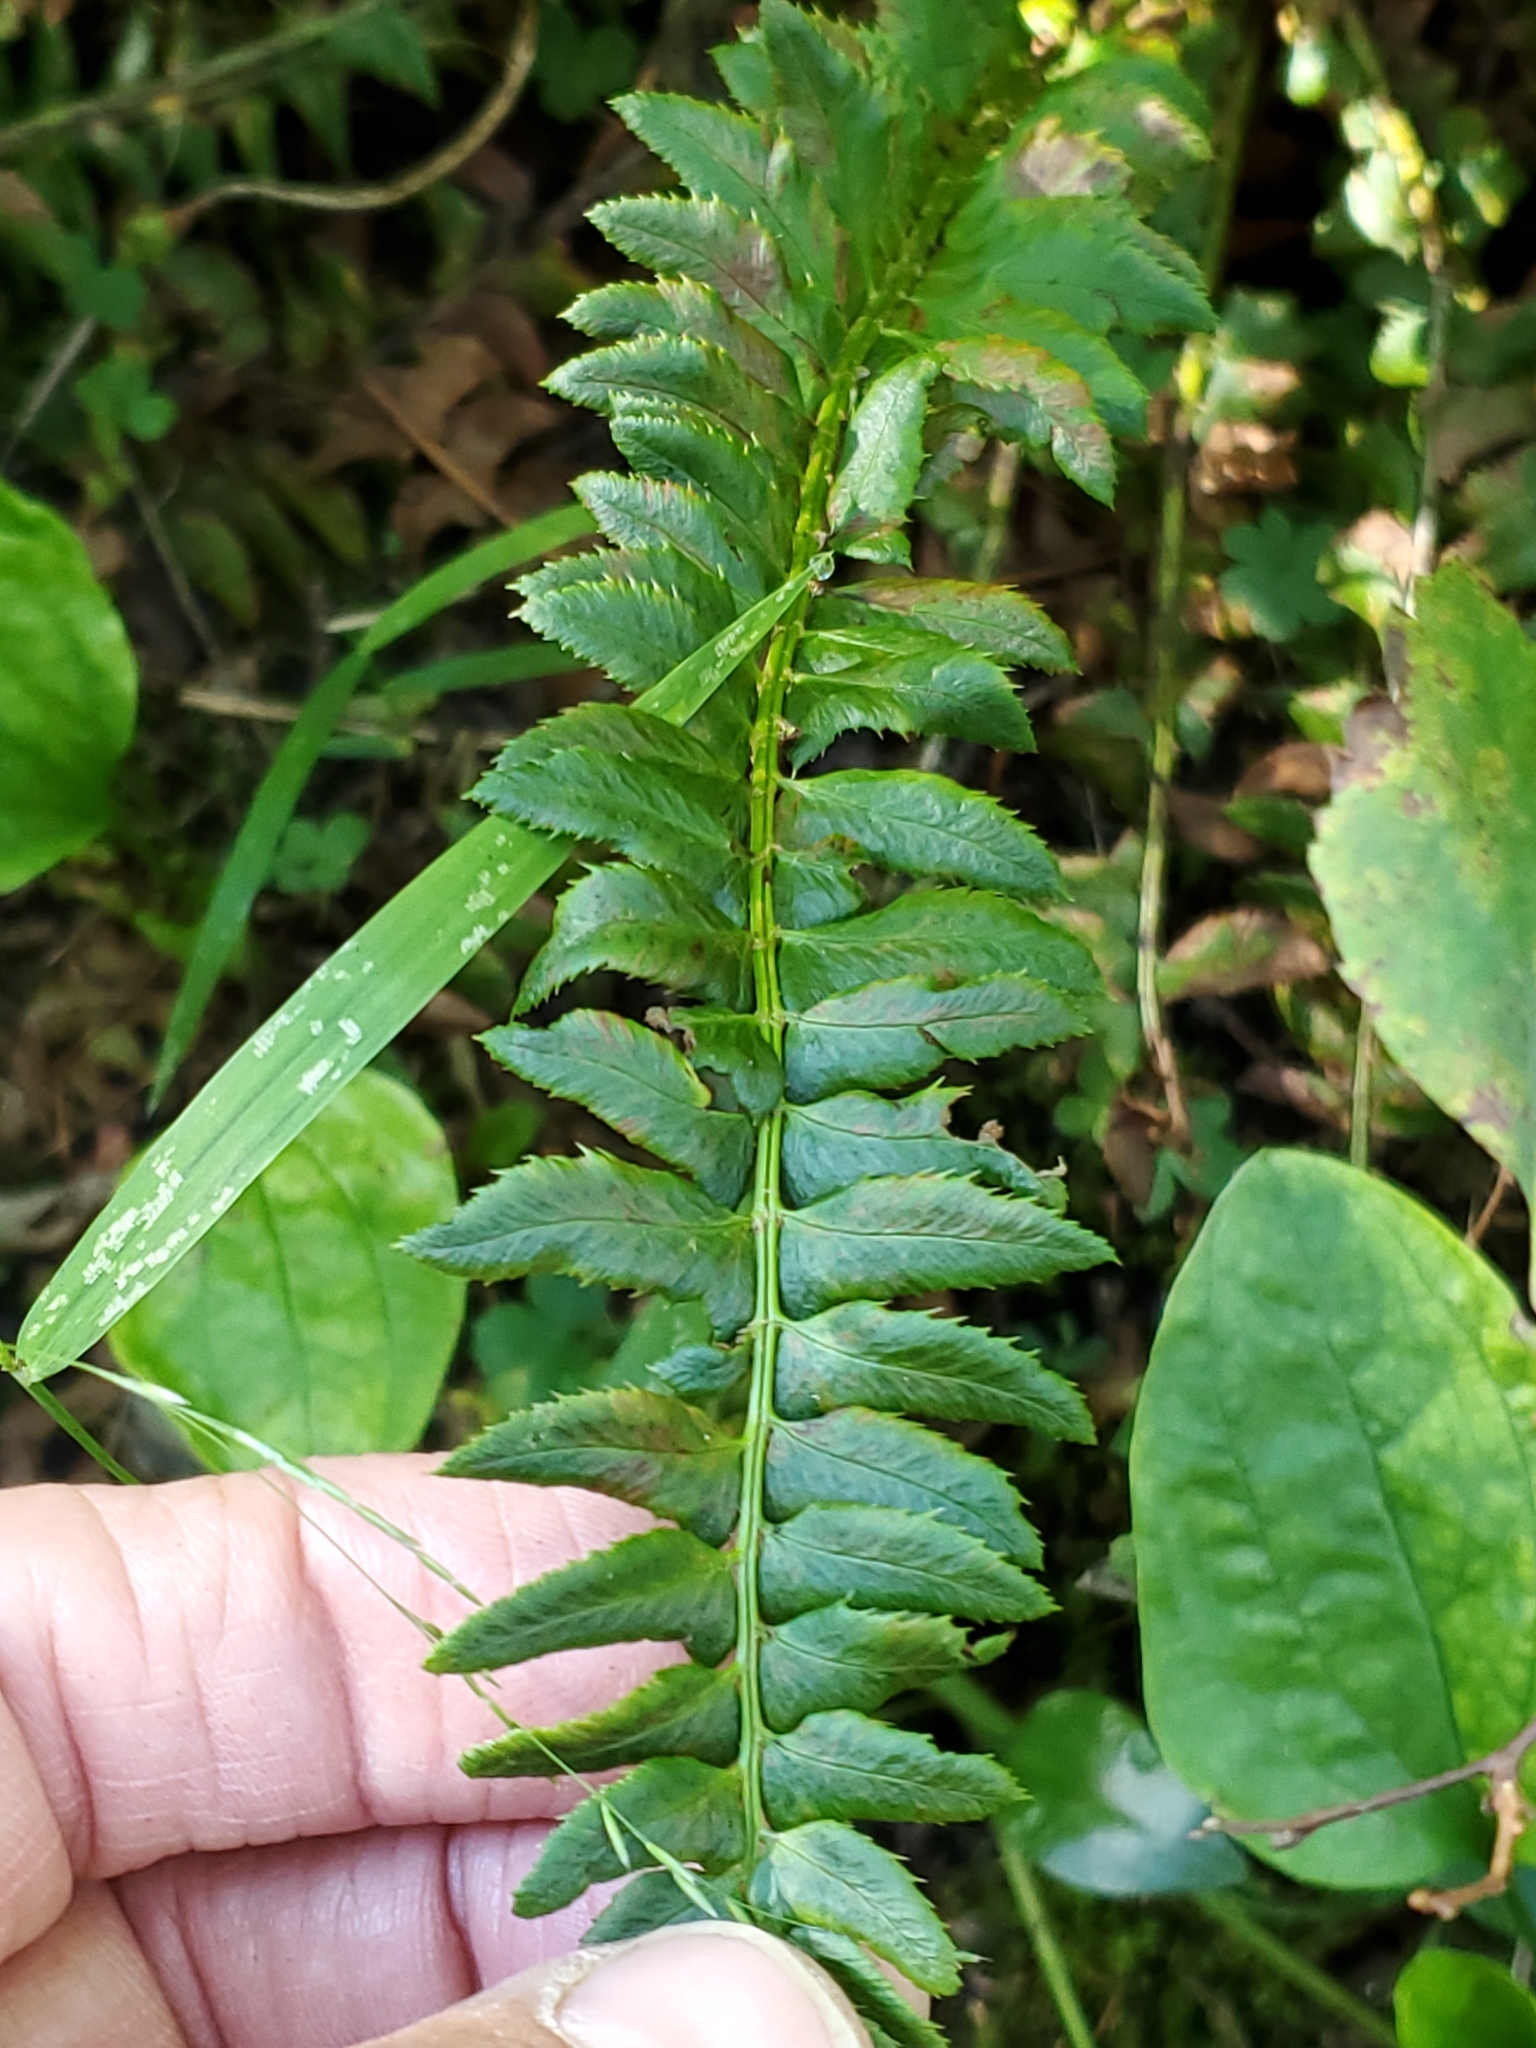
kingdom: Plantae
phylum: Tracheophyta
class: Polypodiopsida
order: Polypodiales
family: Dryopteridaceae
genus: Polystichum
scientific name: Polystichum lonchitis
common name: Holly fern
